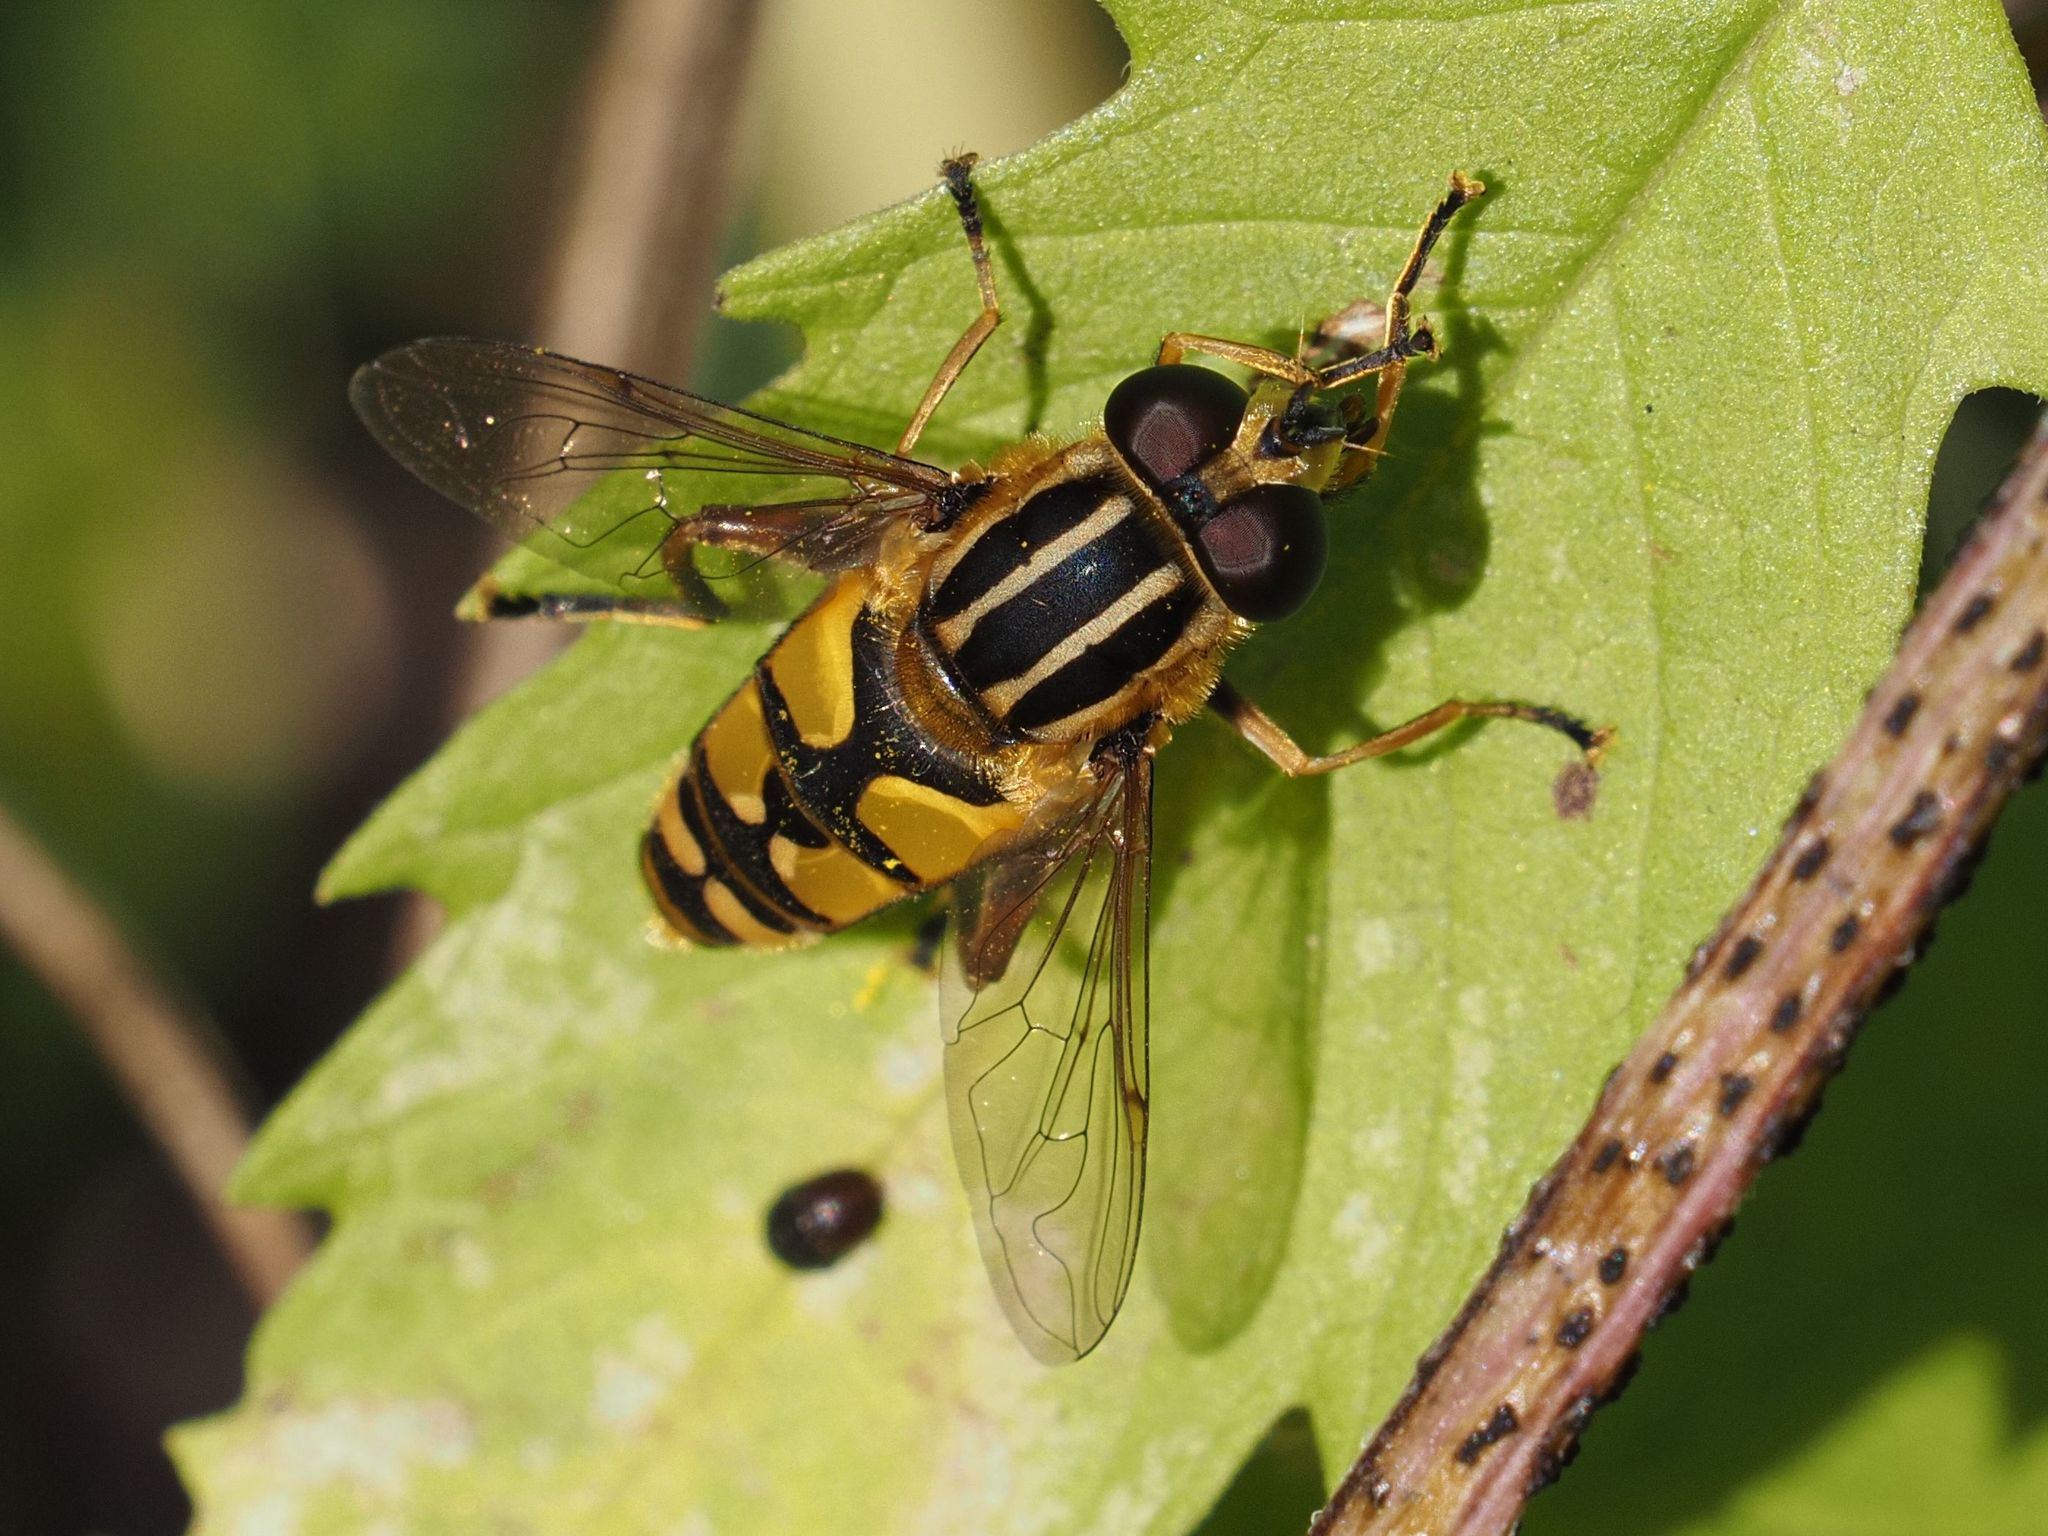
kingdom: Animalia
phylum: Arthropoda
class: Insecta
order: Diptera
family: Syrphidae
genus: Helophilus
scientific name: Helophilus pendulus
